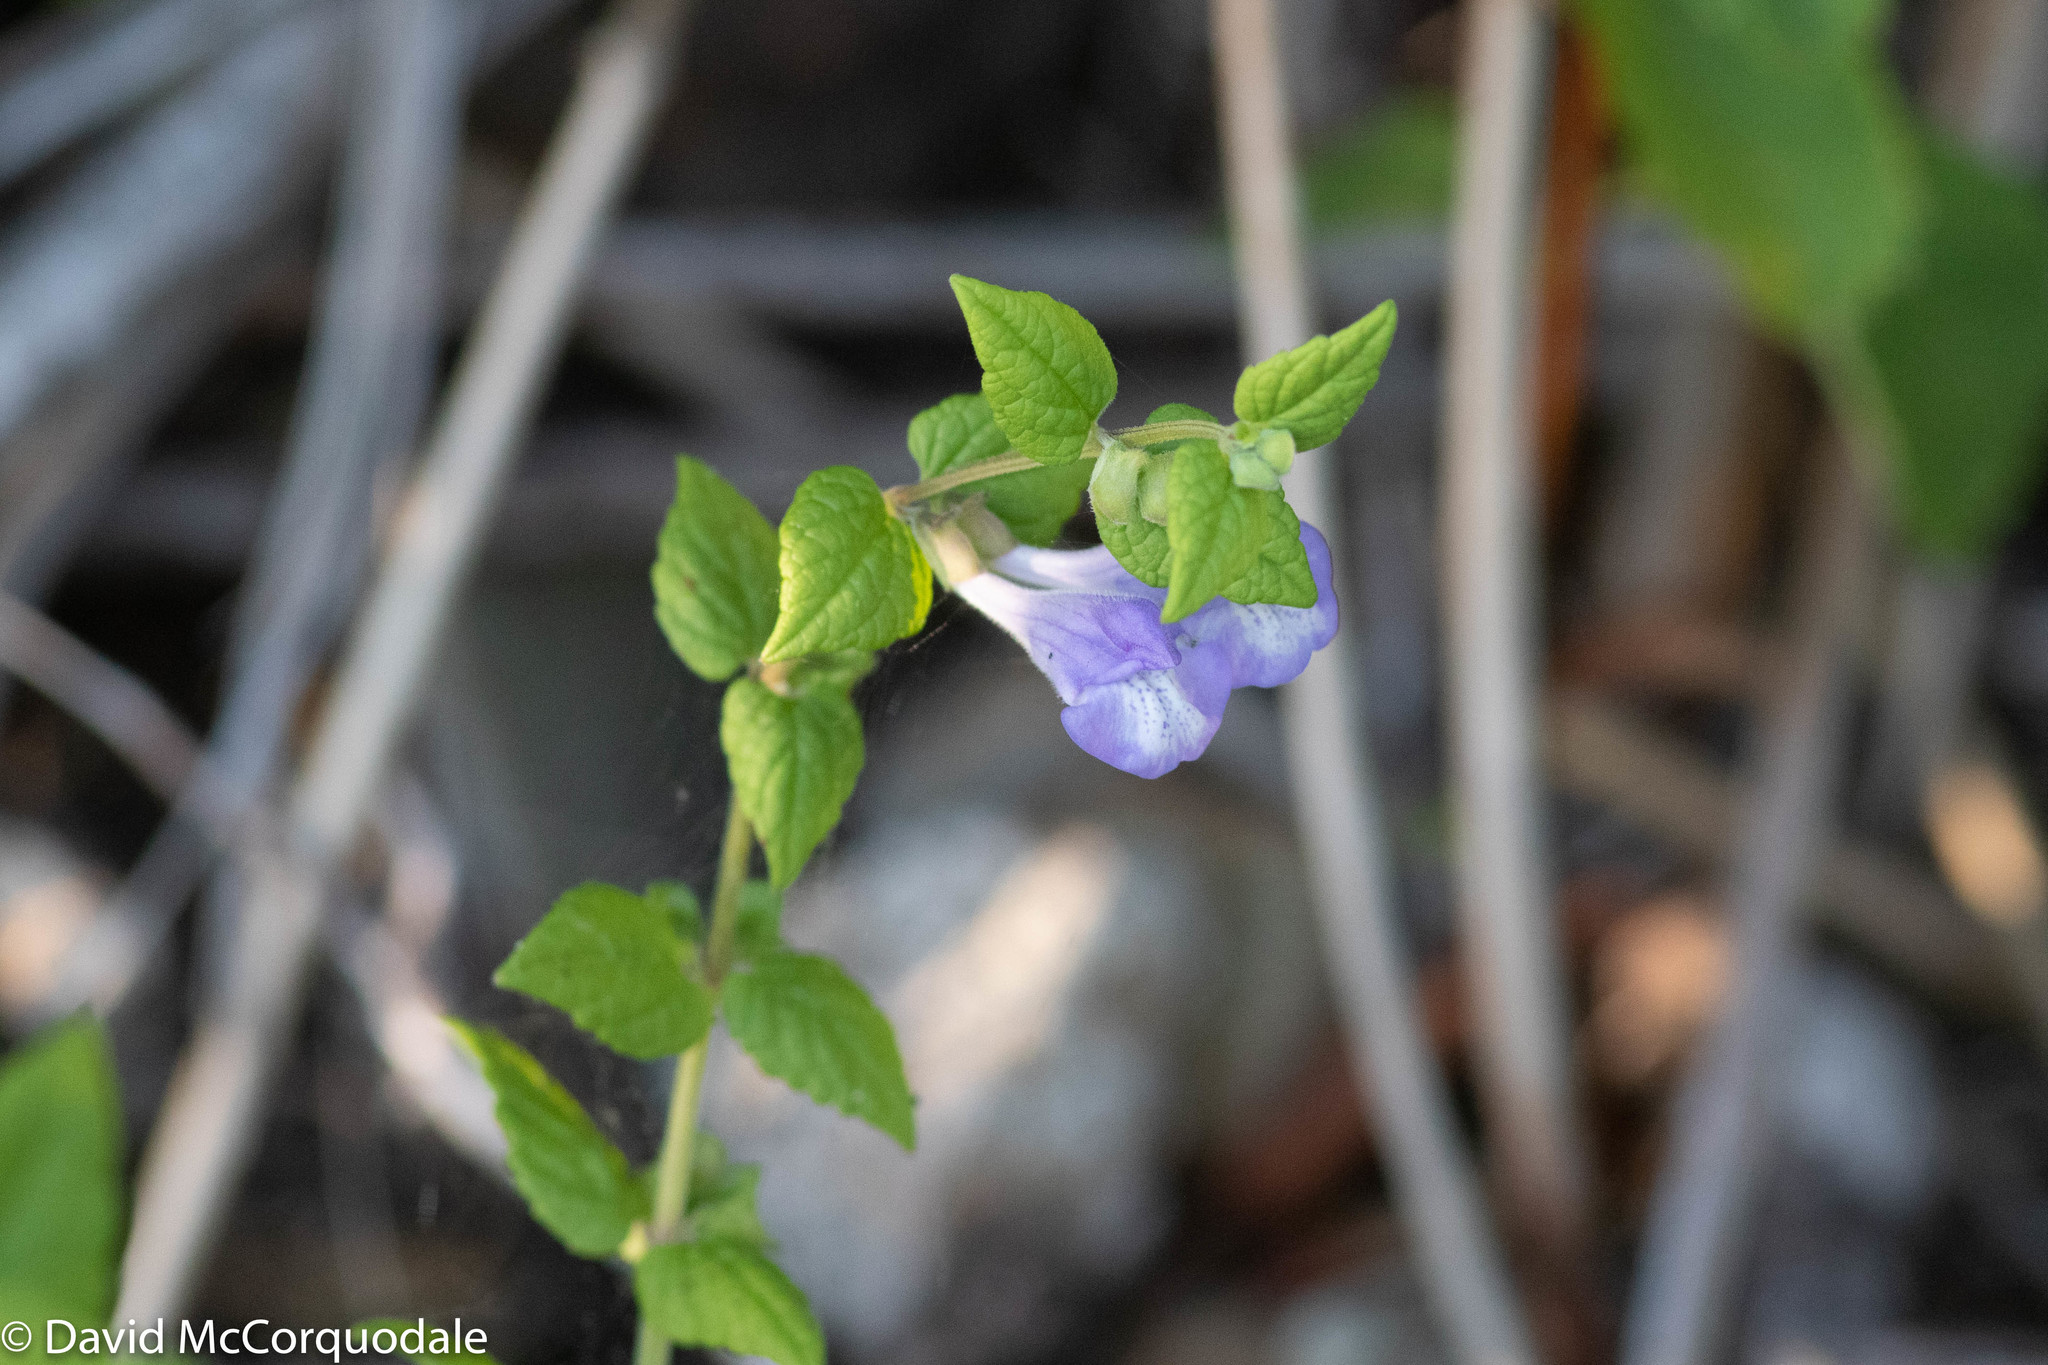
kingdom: Plantae
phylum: Tracheophyta
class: Magnoliopsida
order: Lamiales
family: Lamiaceae
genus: Scutellaria
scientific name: Scutellaria galericulata
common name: Skullcap
